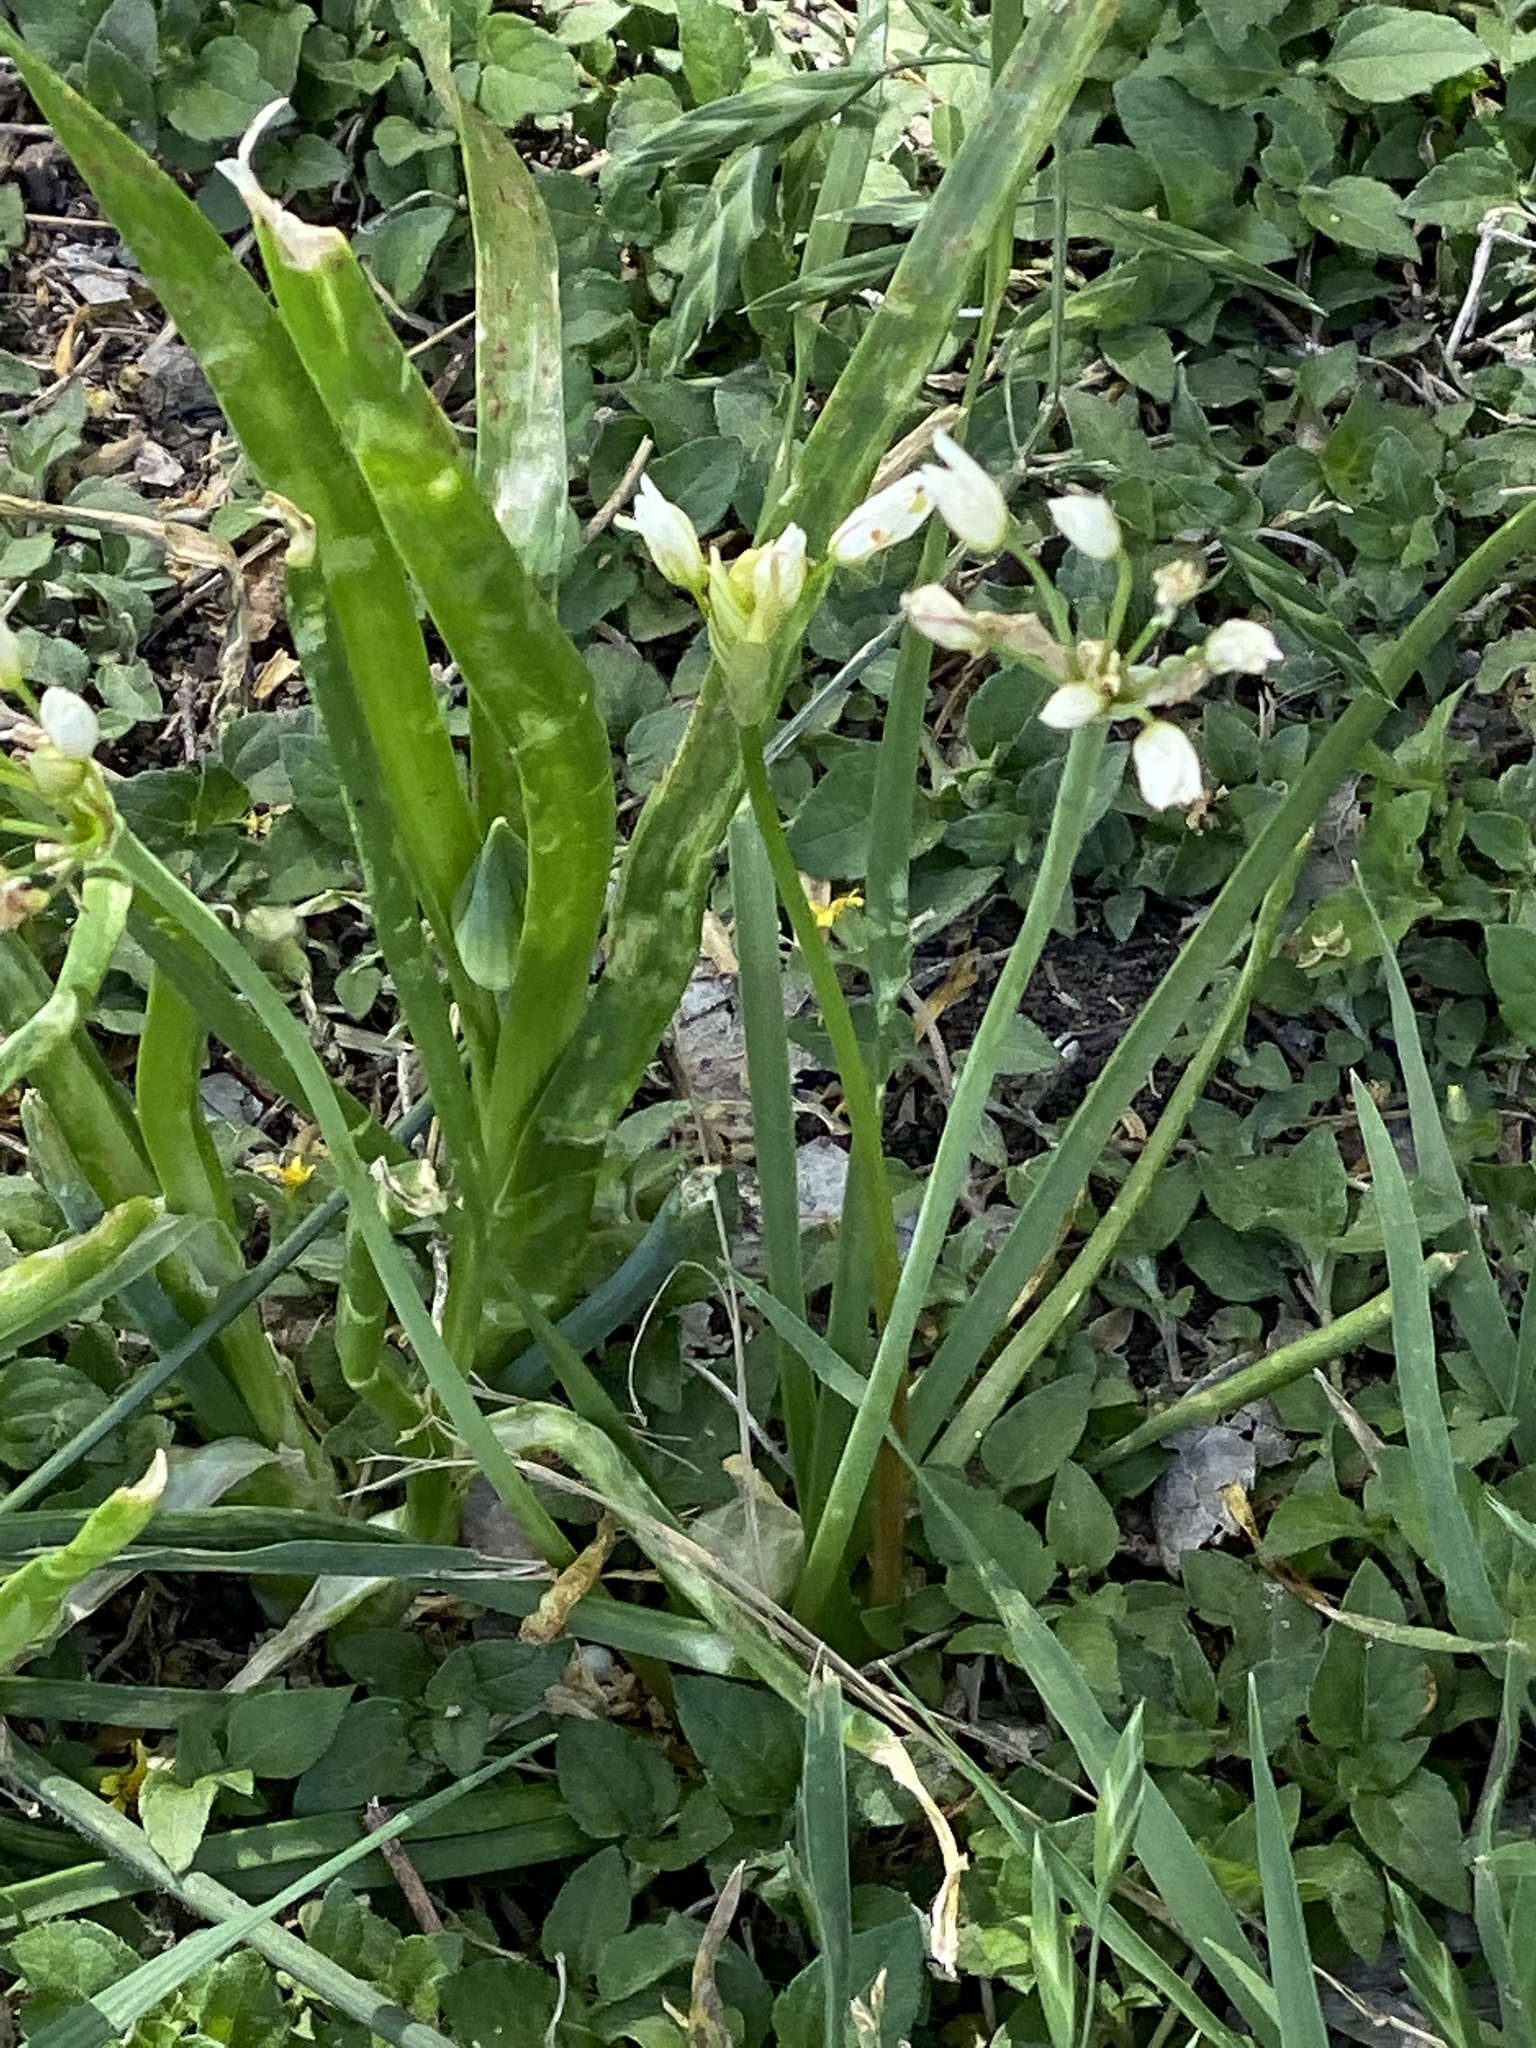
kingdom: Plantae
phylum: Tracheophyta
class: Liliopsida
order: Asparagales
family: Amaryllidaceae
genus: Nothoscordum
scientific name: Nothoscordum bivalve
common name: Crow-poison
